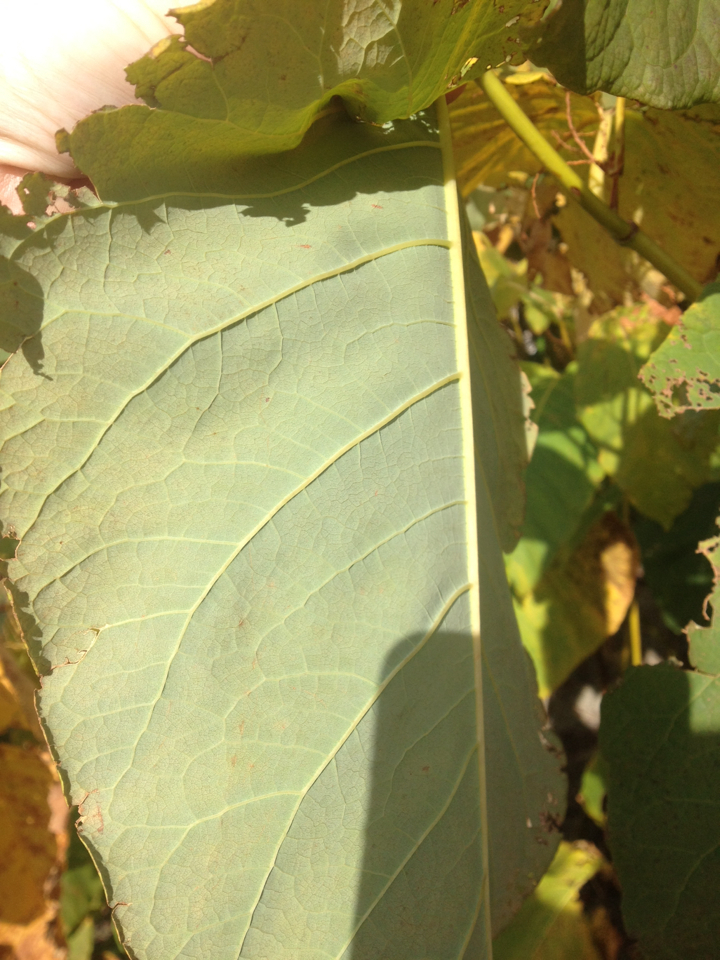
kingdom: Plantae
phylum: Tracheophyta
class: Magnoliopsida
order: Caryophyllales
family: Polygonaceae
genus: Reynoutria
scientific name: Reynoutria sachalinensis
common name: Giant knotweed
